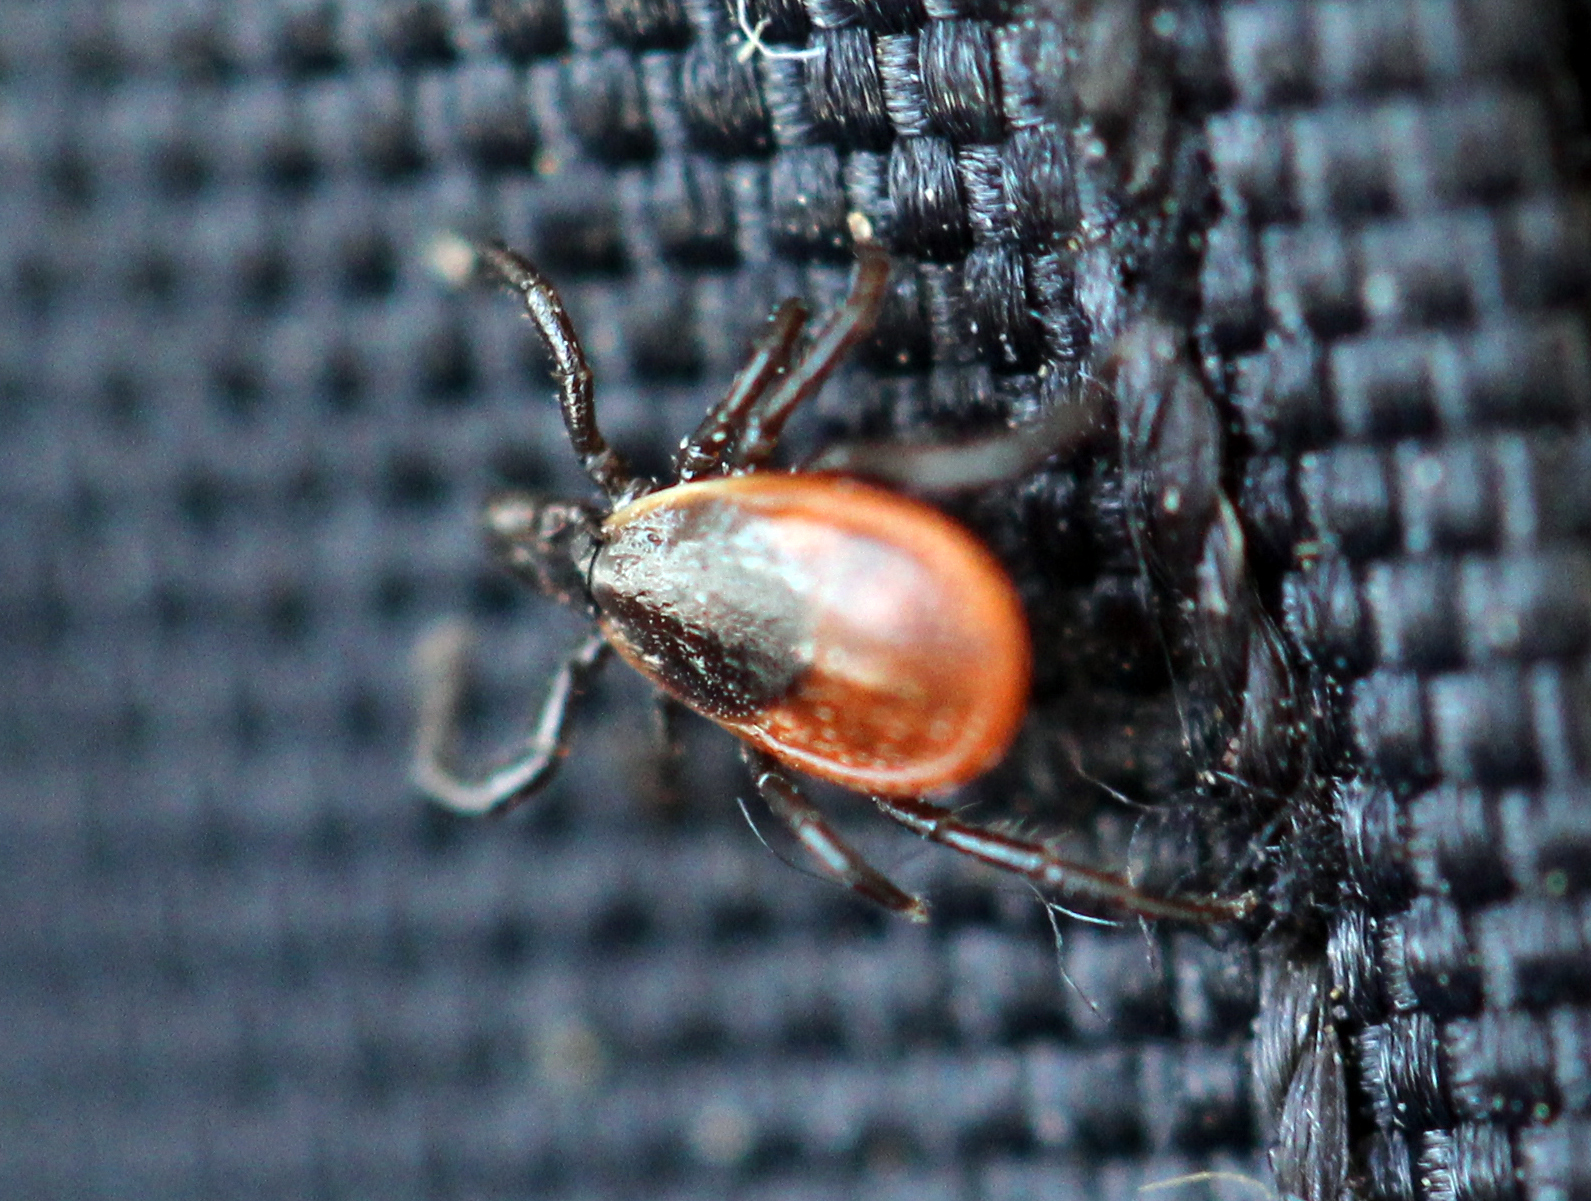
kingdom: Animalia
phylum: Arthropoda
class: Arachnida
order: Ixodida
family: Ixodidae
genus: Ixodes
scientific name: Ixodes scapularis
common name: Black legged tick
